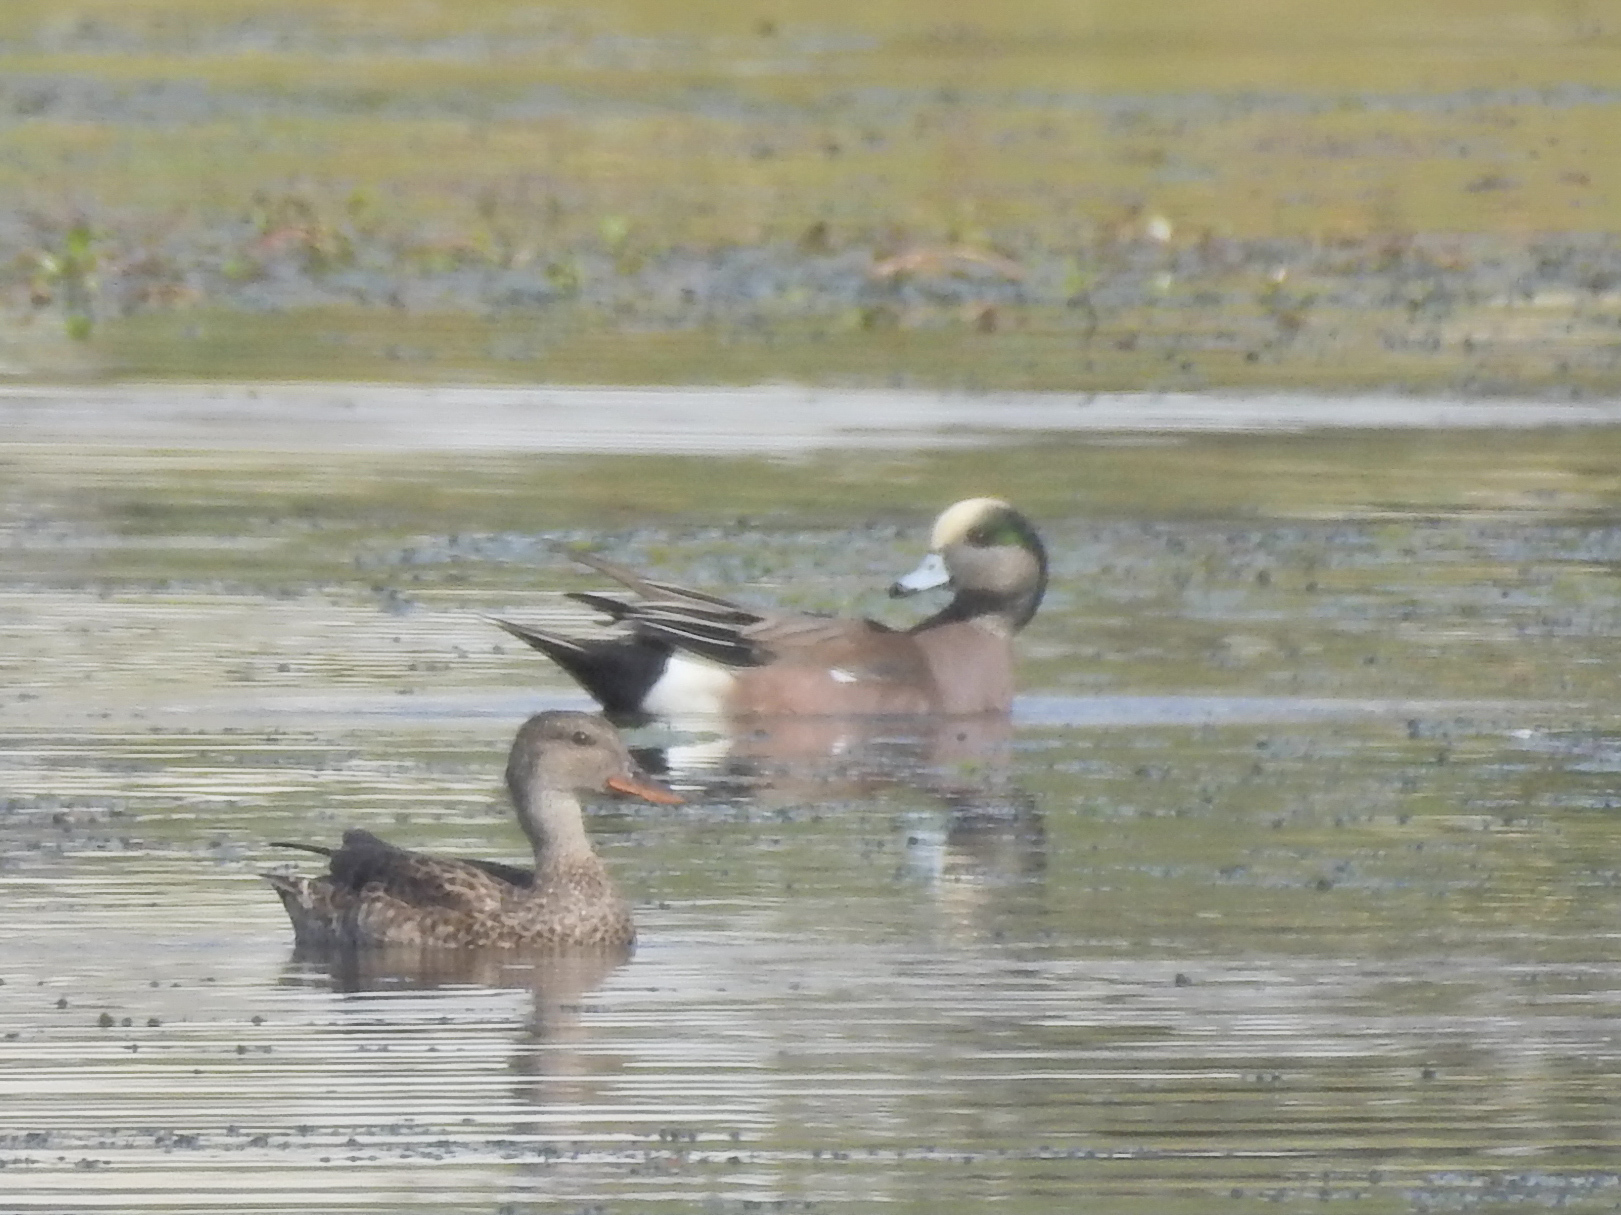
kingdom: Animalia
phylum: Chordata
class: Aves
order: Anseriformes
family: Anatidae
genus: Mareca
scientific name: Mareca americana
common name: American wigeon
